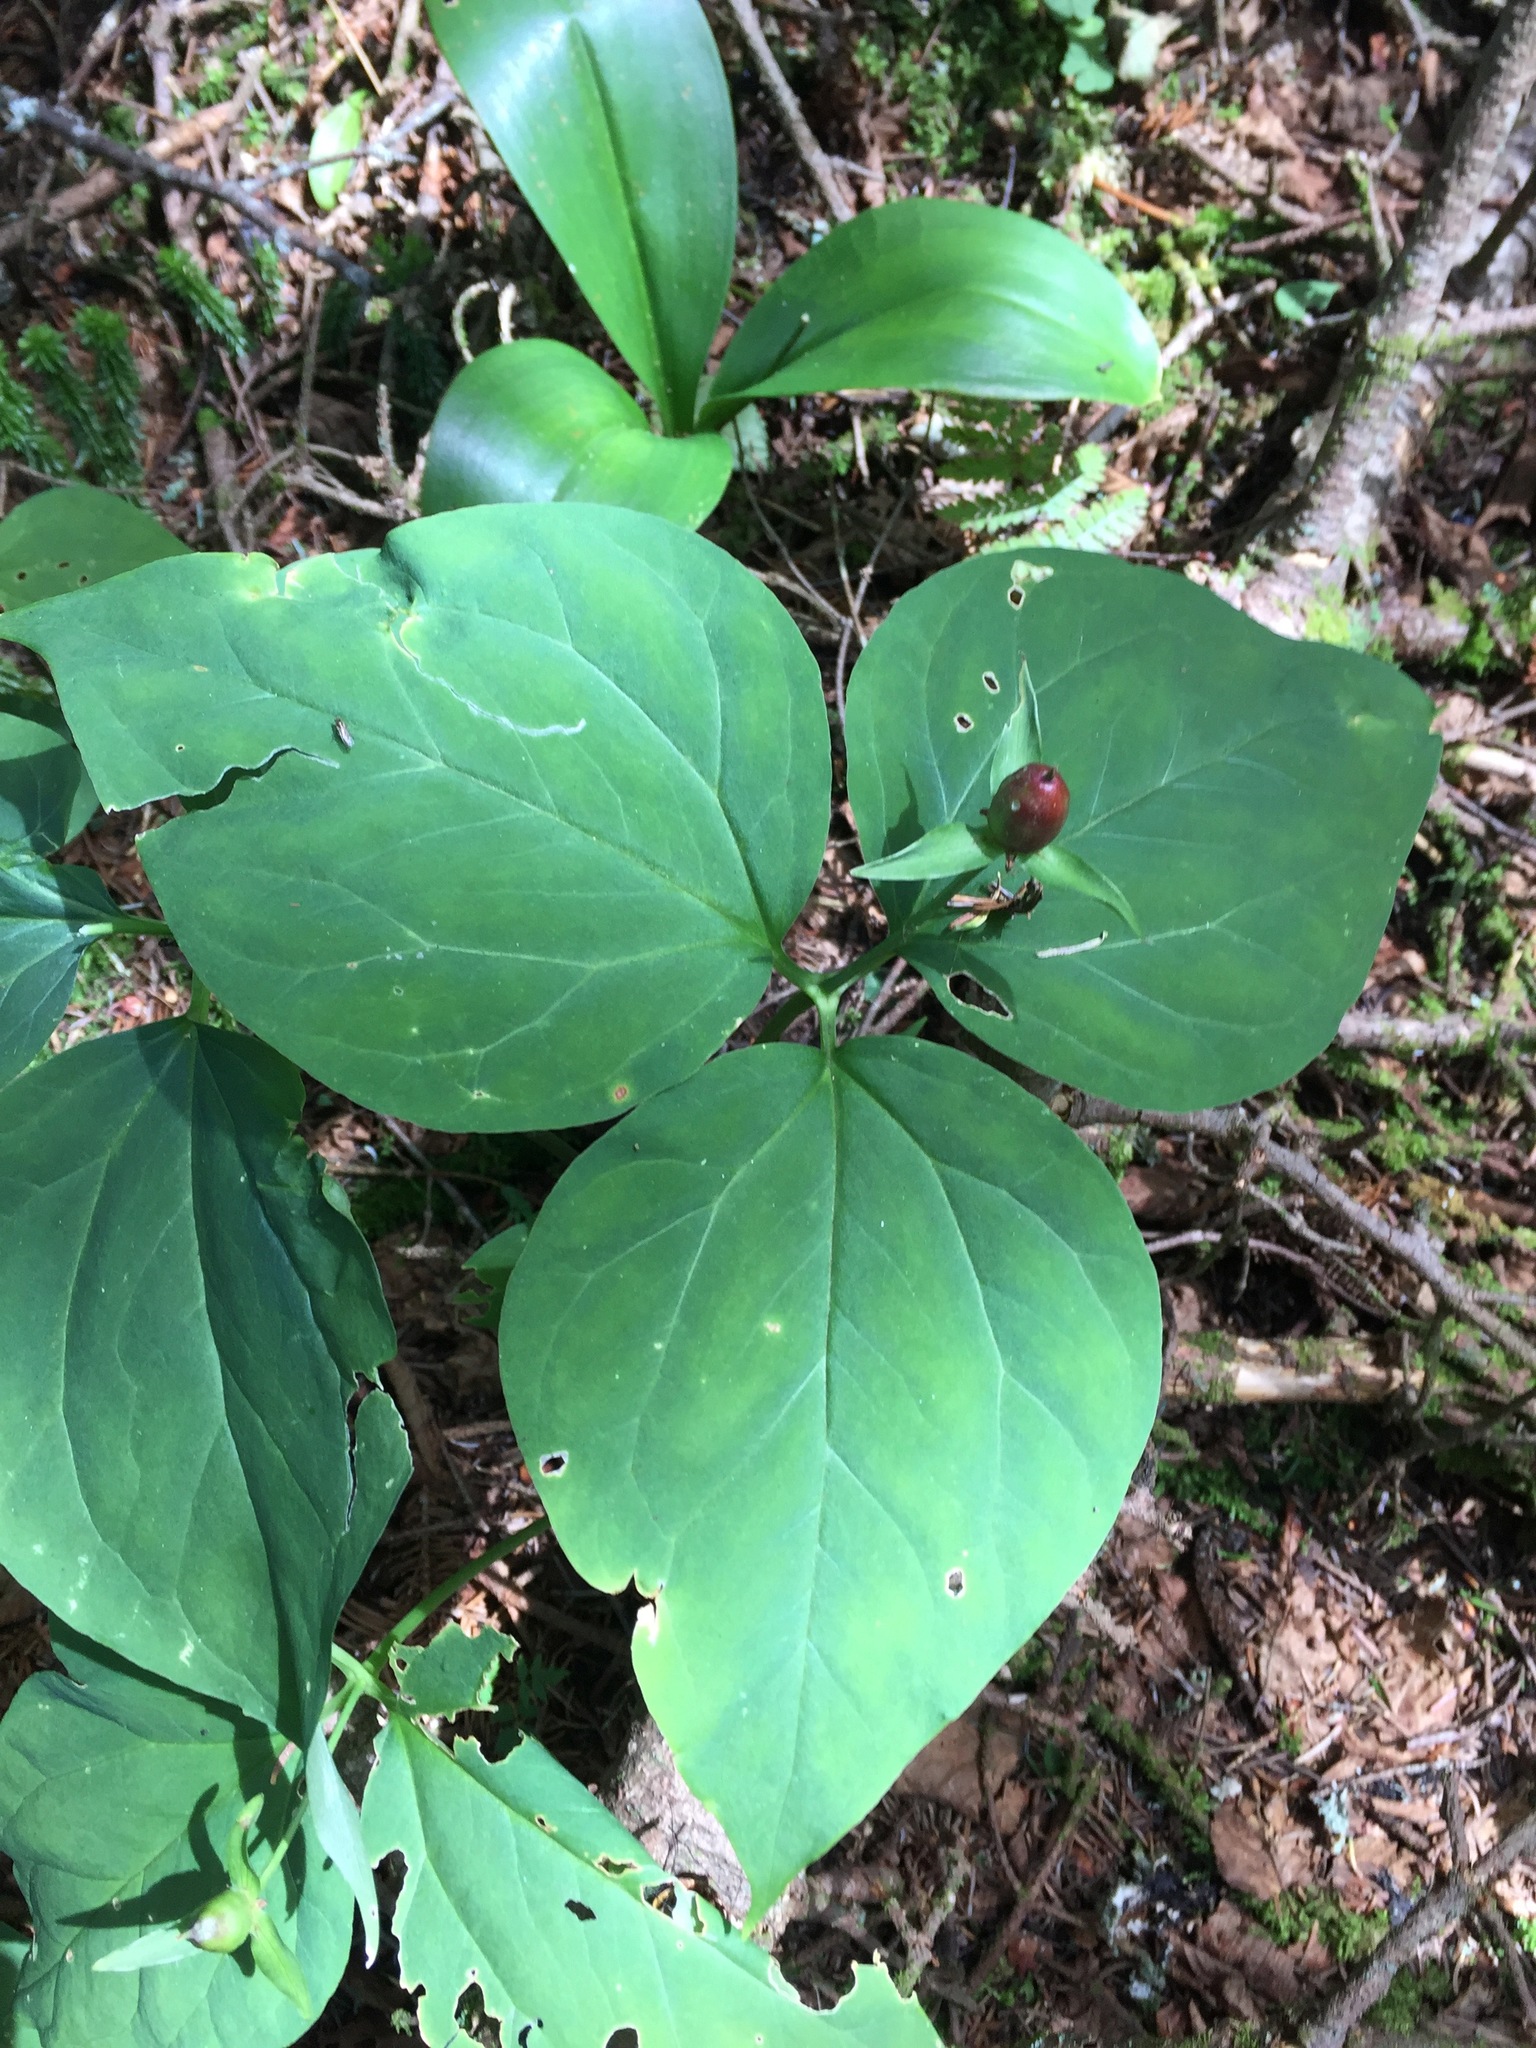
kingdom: Plantae
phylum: Tracheophyta
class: Liliopsida
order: Liliales
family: Melanthiaceae
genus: Trillium
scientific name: Trillium undulatum
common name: Paint trillium
